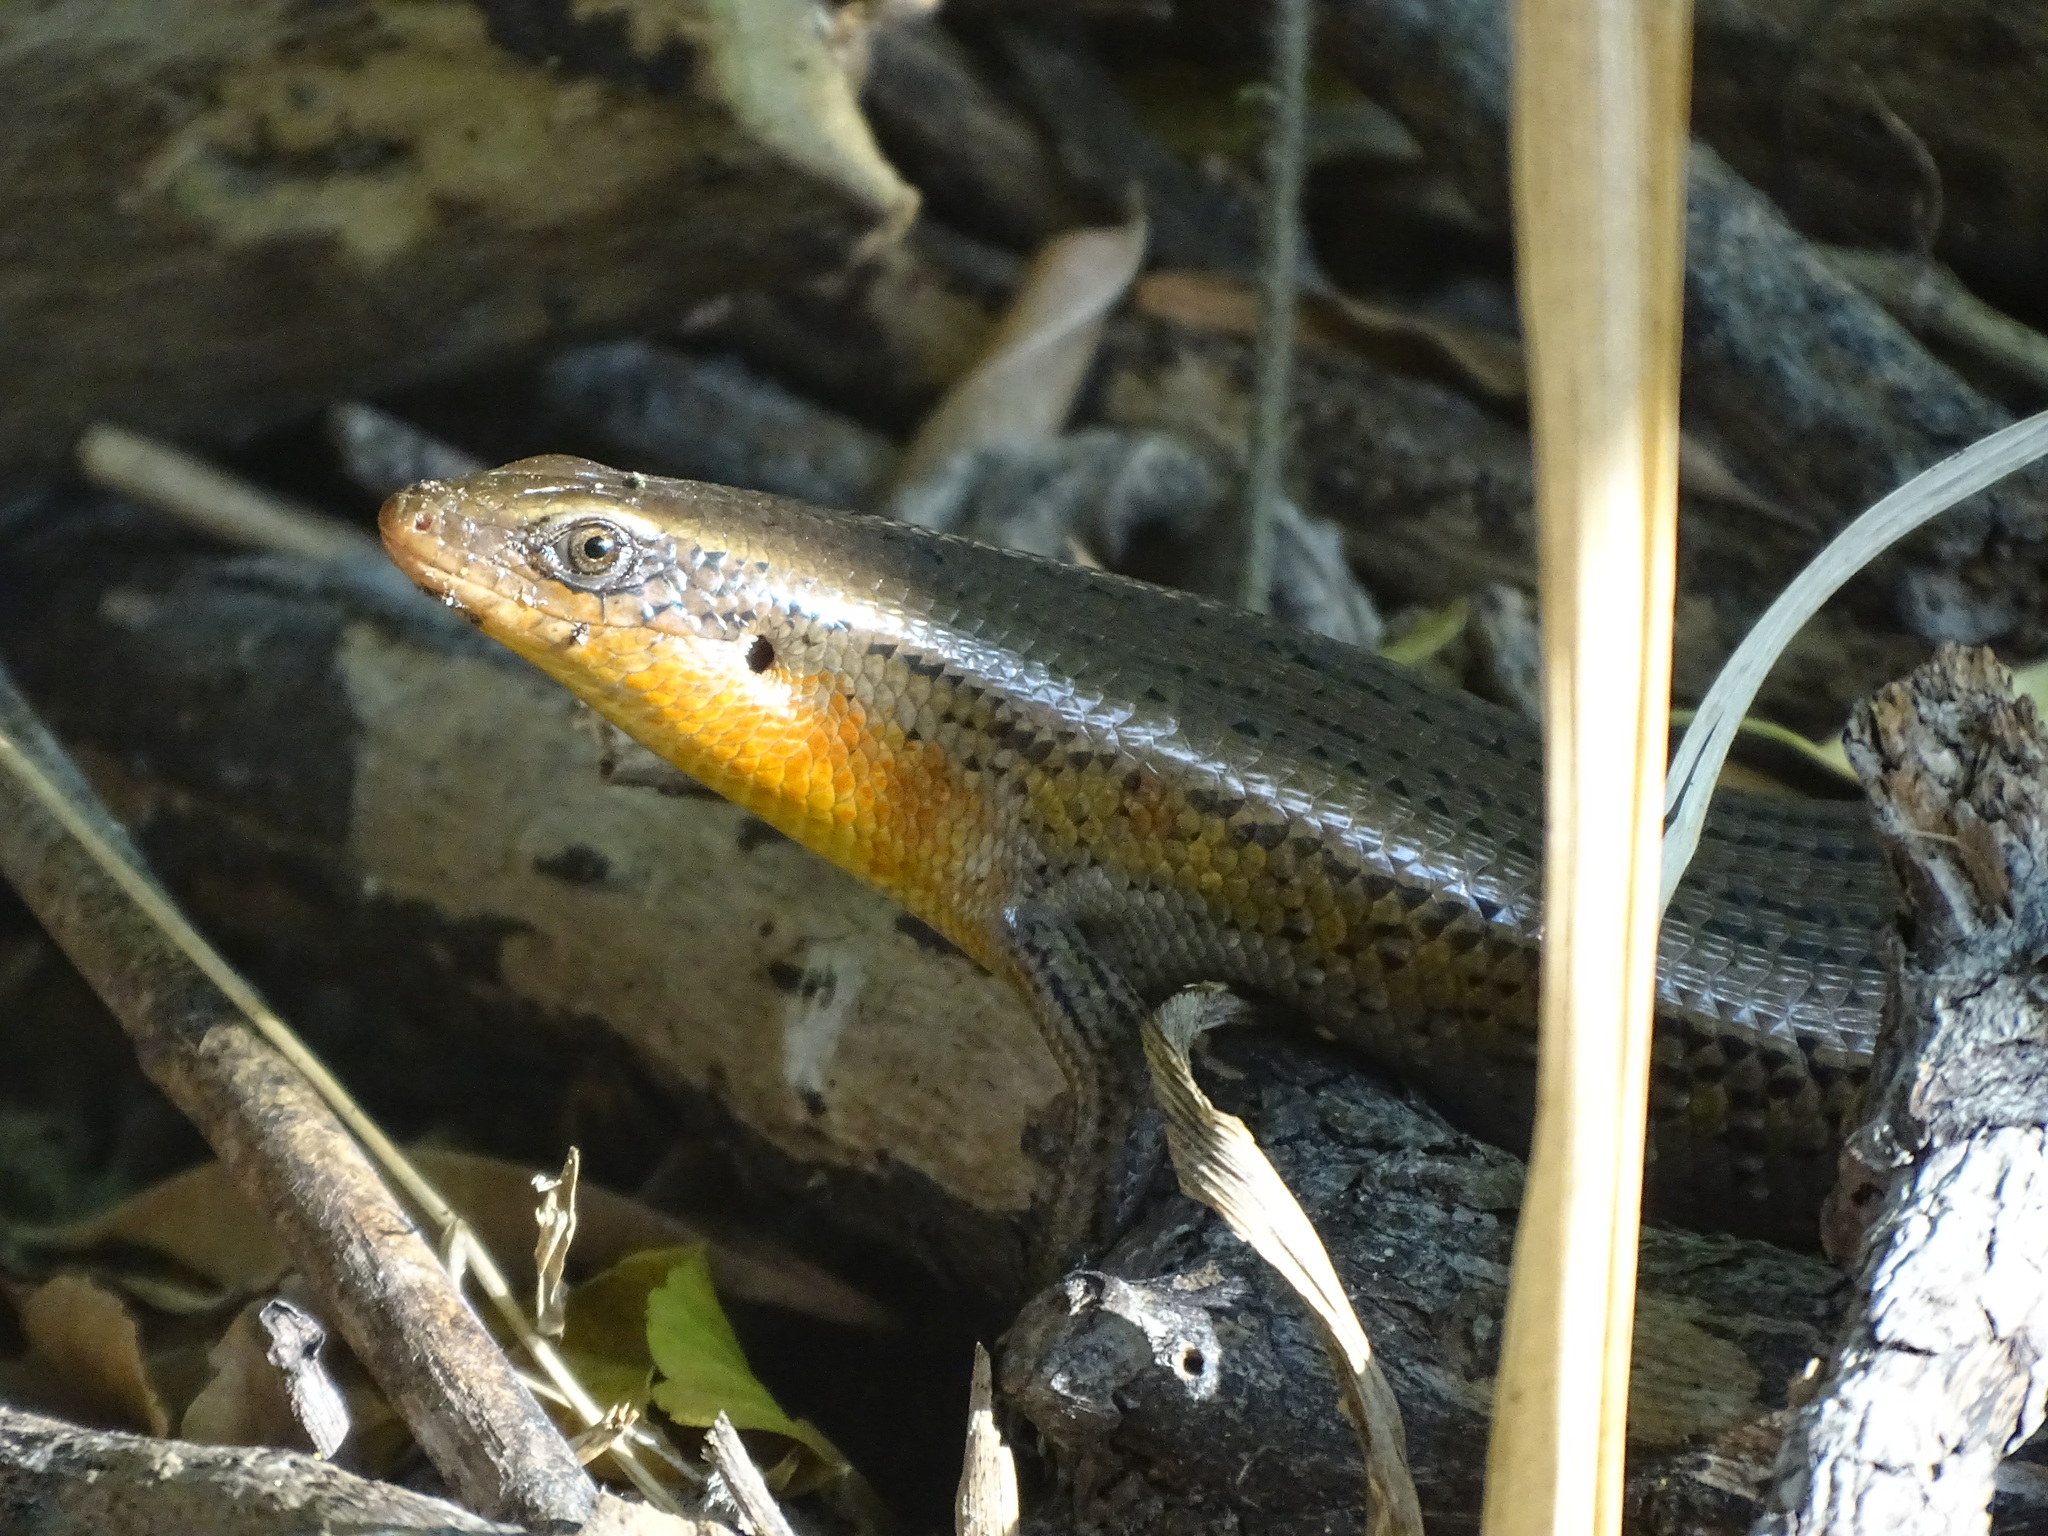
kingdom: Animalia
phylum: Chordata
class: Squamata
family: Scincidae
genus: Eutropis
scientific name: Eutropis multifasciata
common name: Common mabuya
